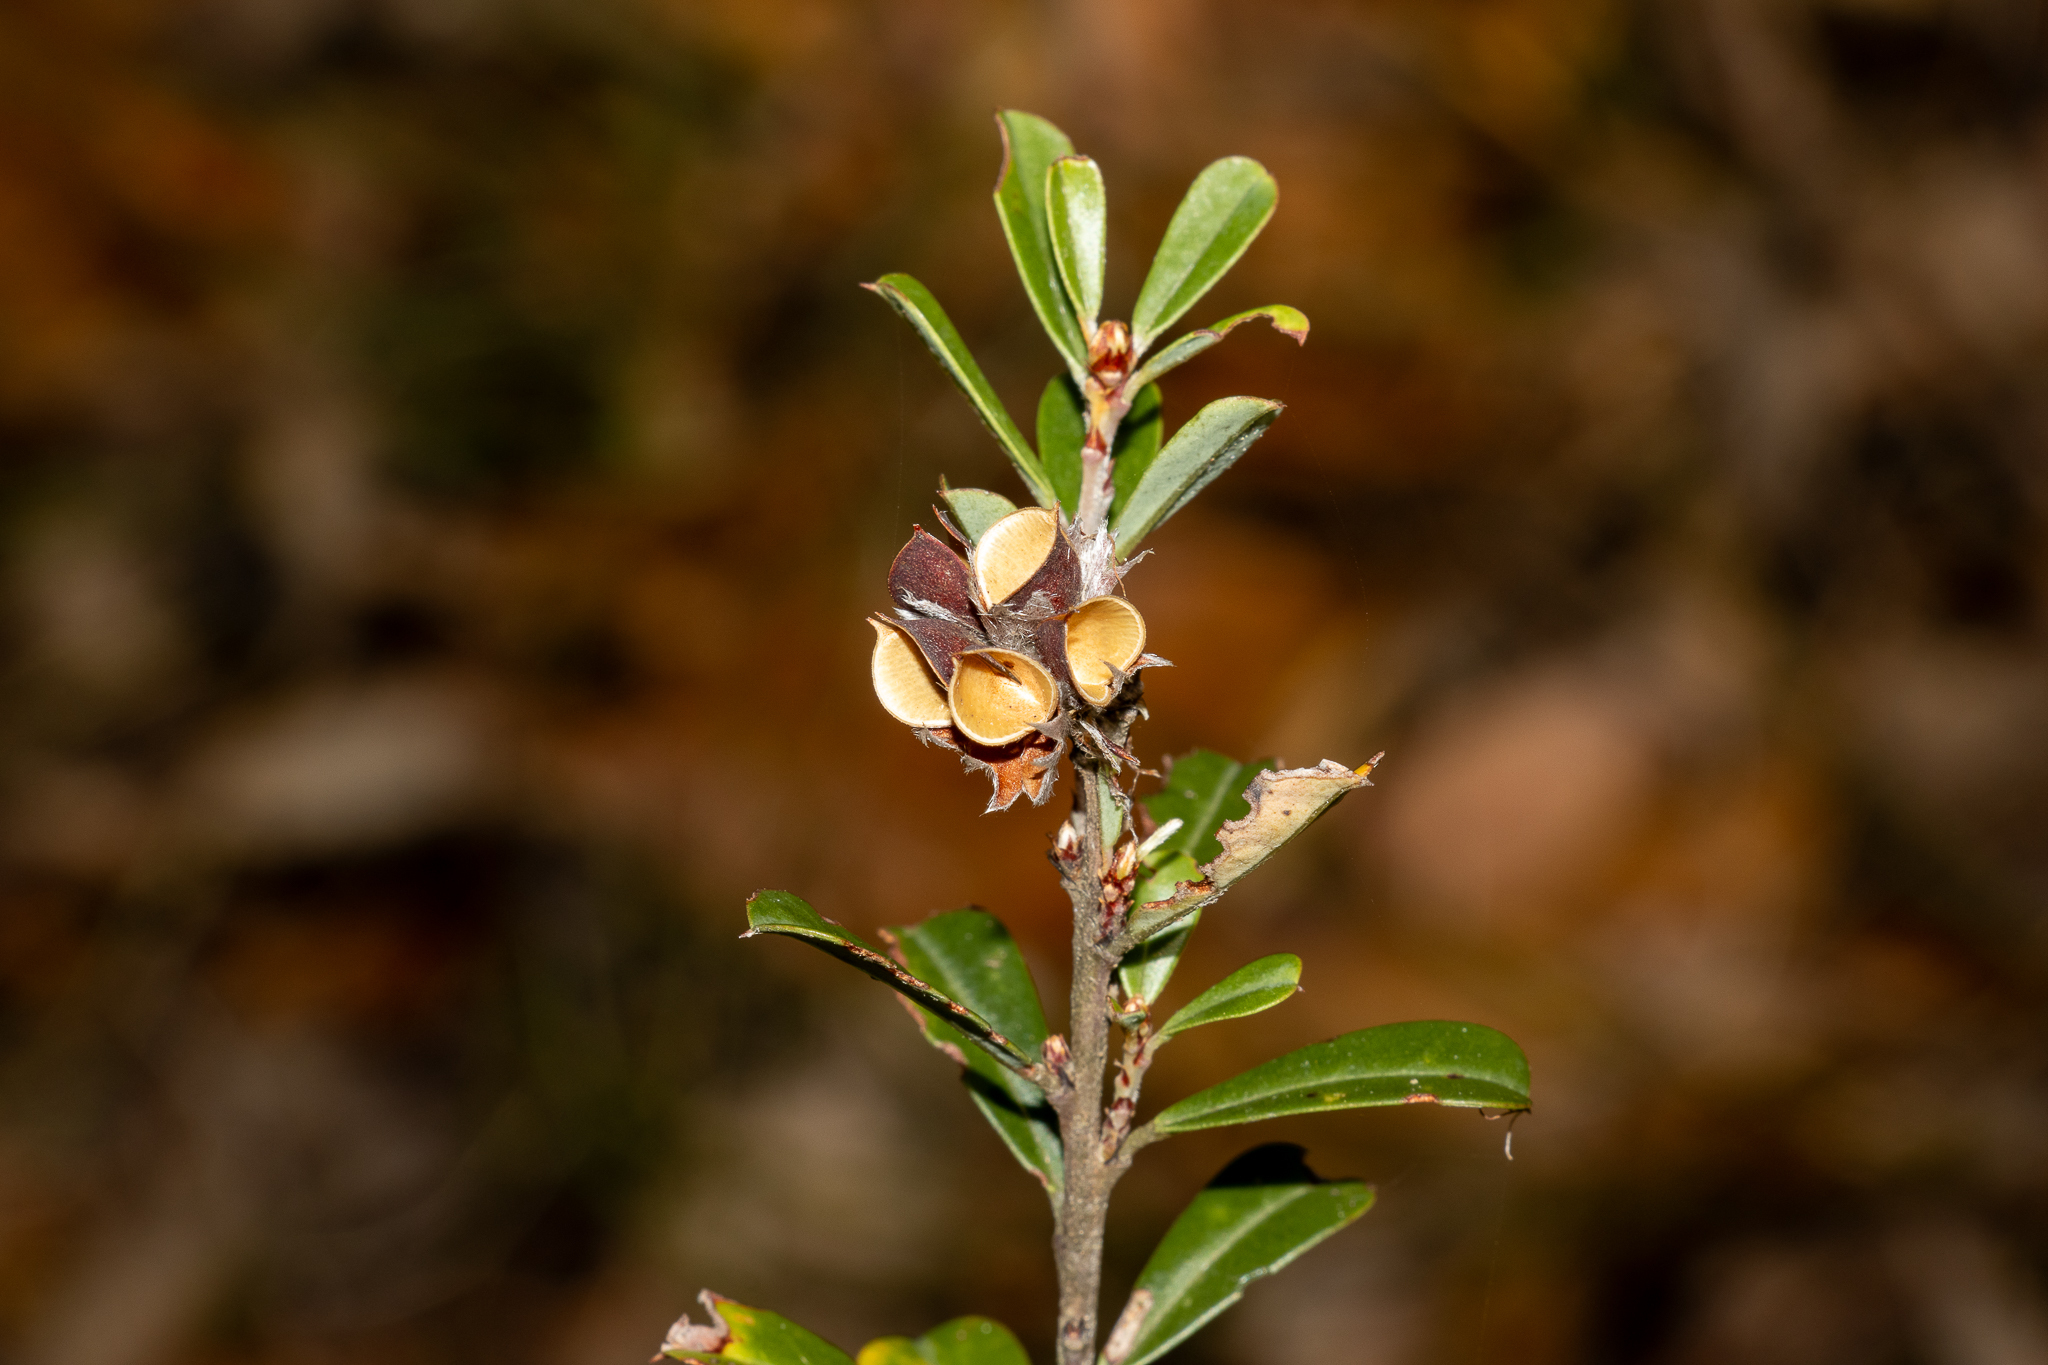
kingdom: Plantae
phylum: Tracheophyta
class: Magnoliopsida
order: Fabales
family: Fabaceae
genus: Pultenaea
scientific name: Pultenaea daphnoides
